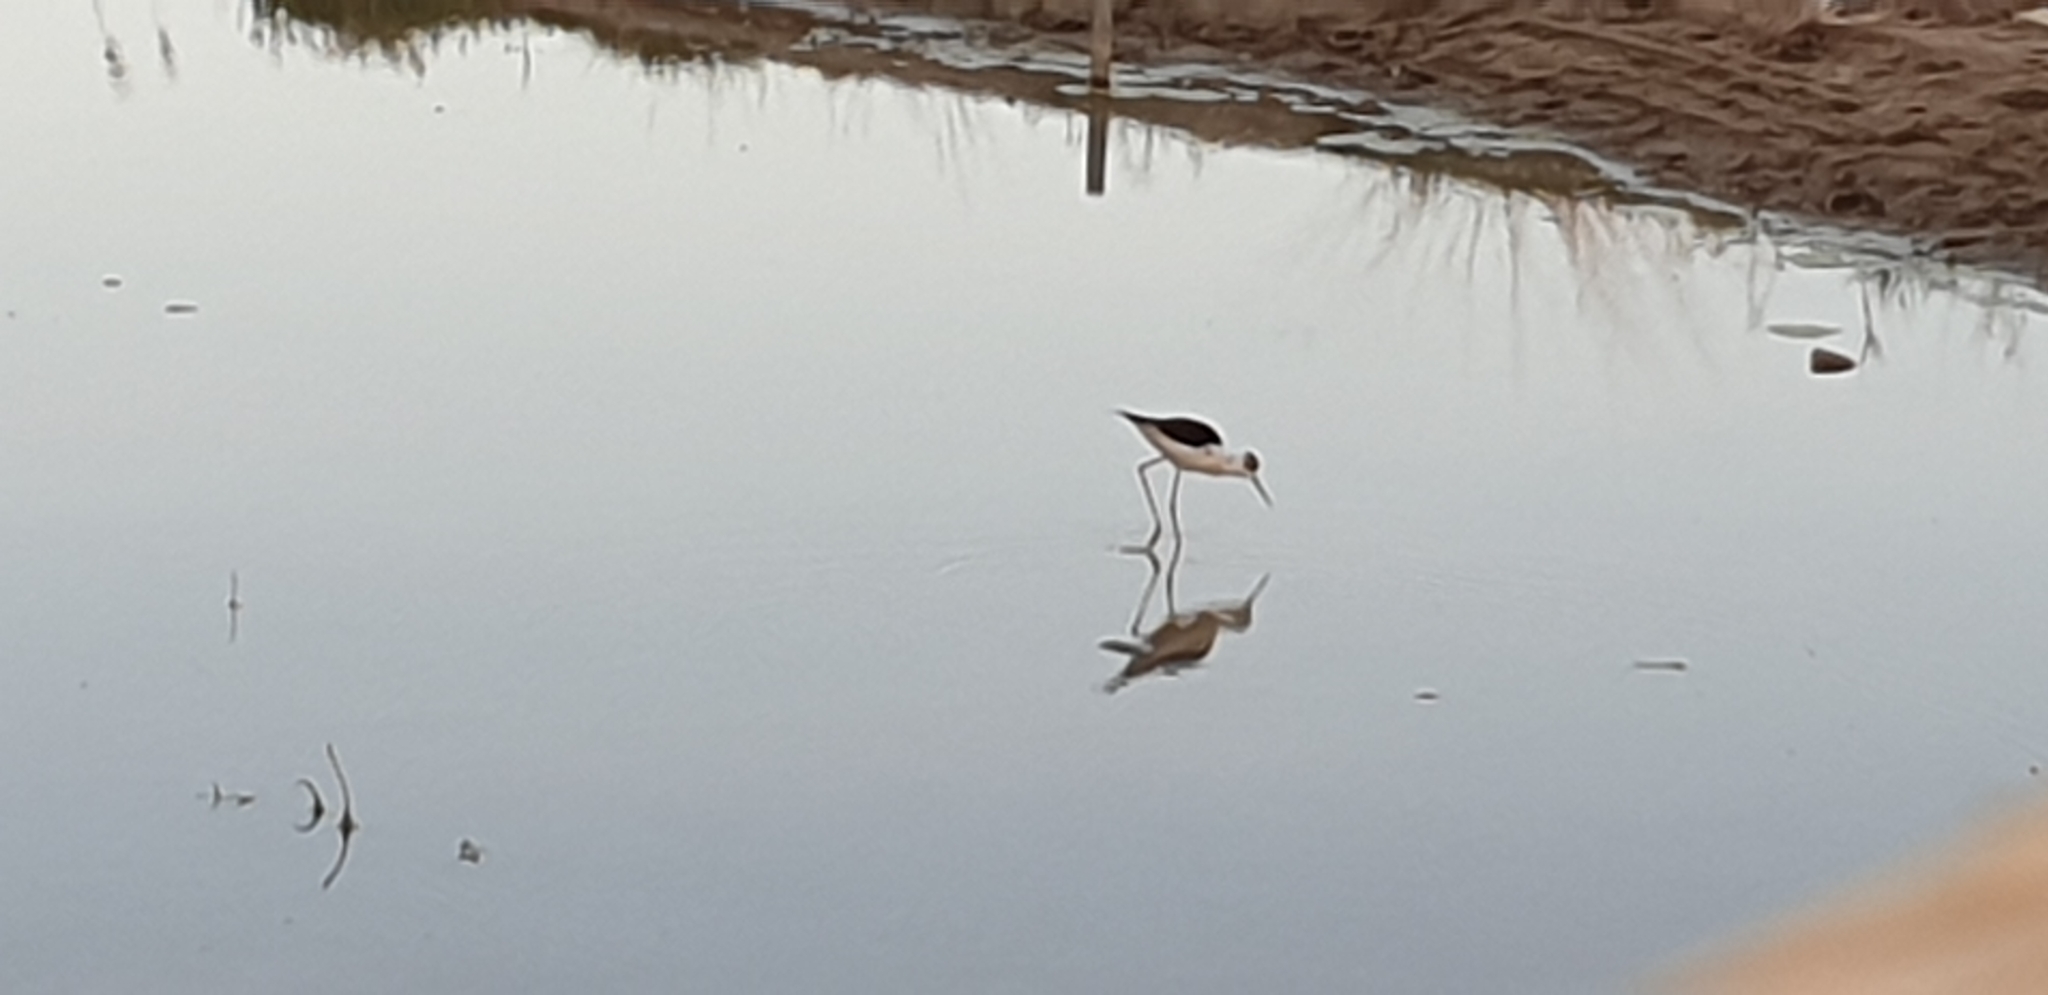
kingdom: Animalia
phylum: Chordata
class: Aves
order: Charadriiformes
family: Recurvirostridae
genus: Himantopus
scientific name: Himantopus himantopus
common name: Black-winged stilt
